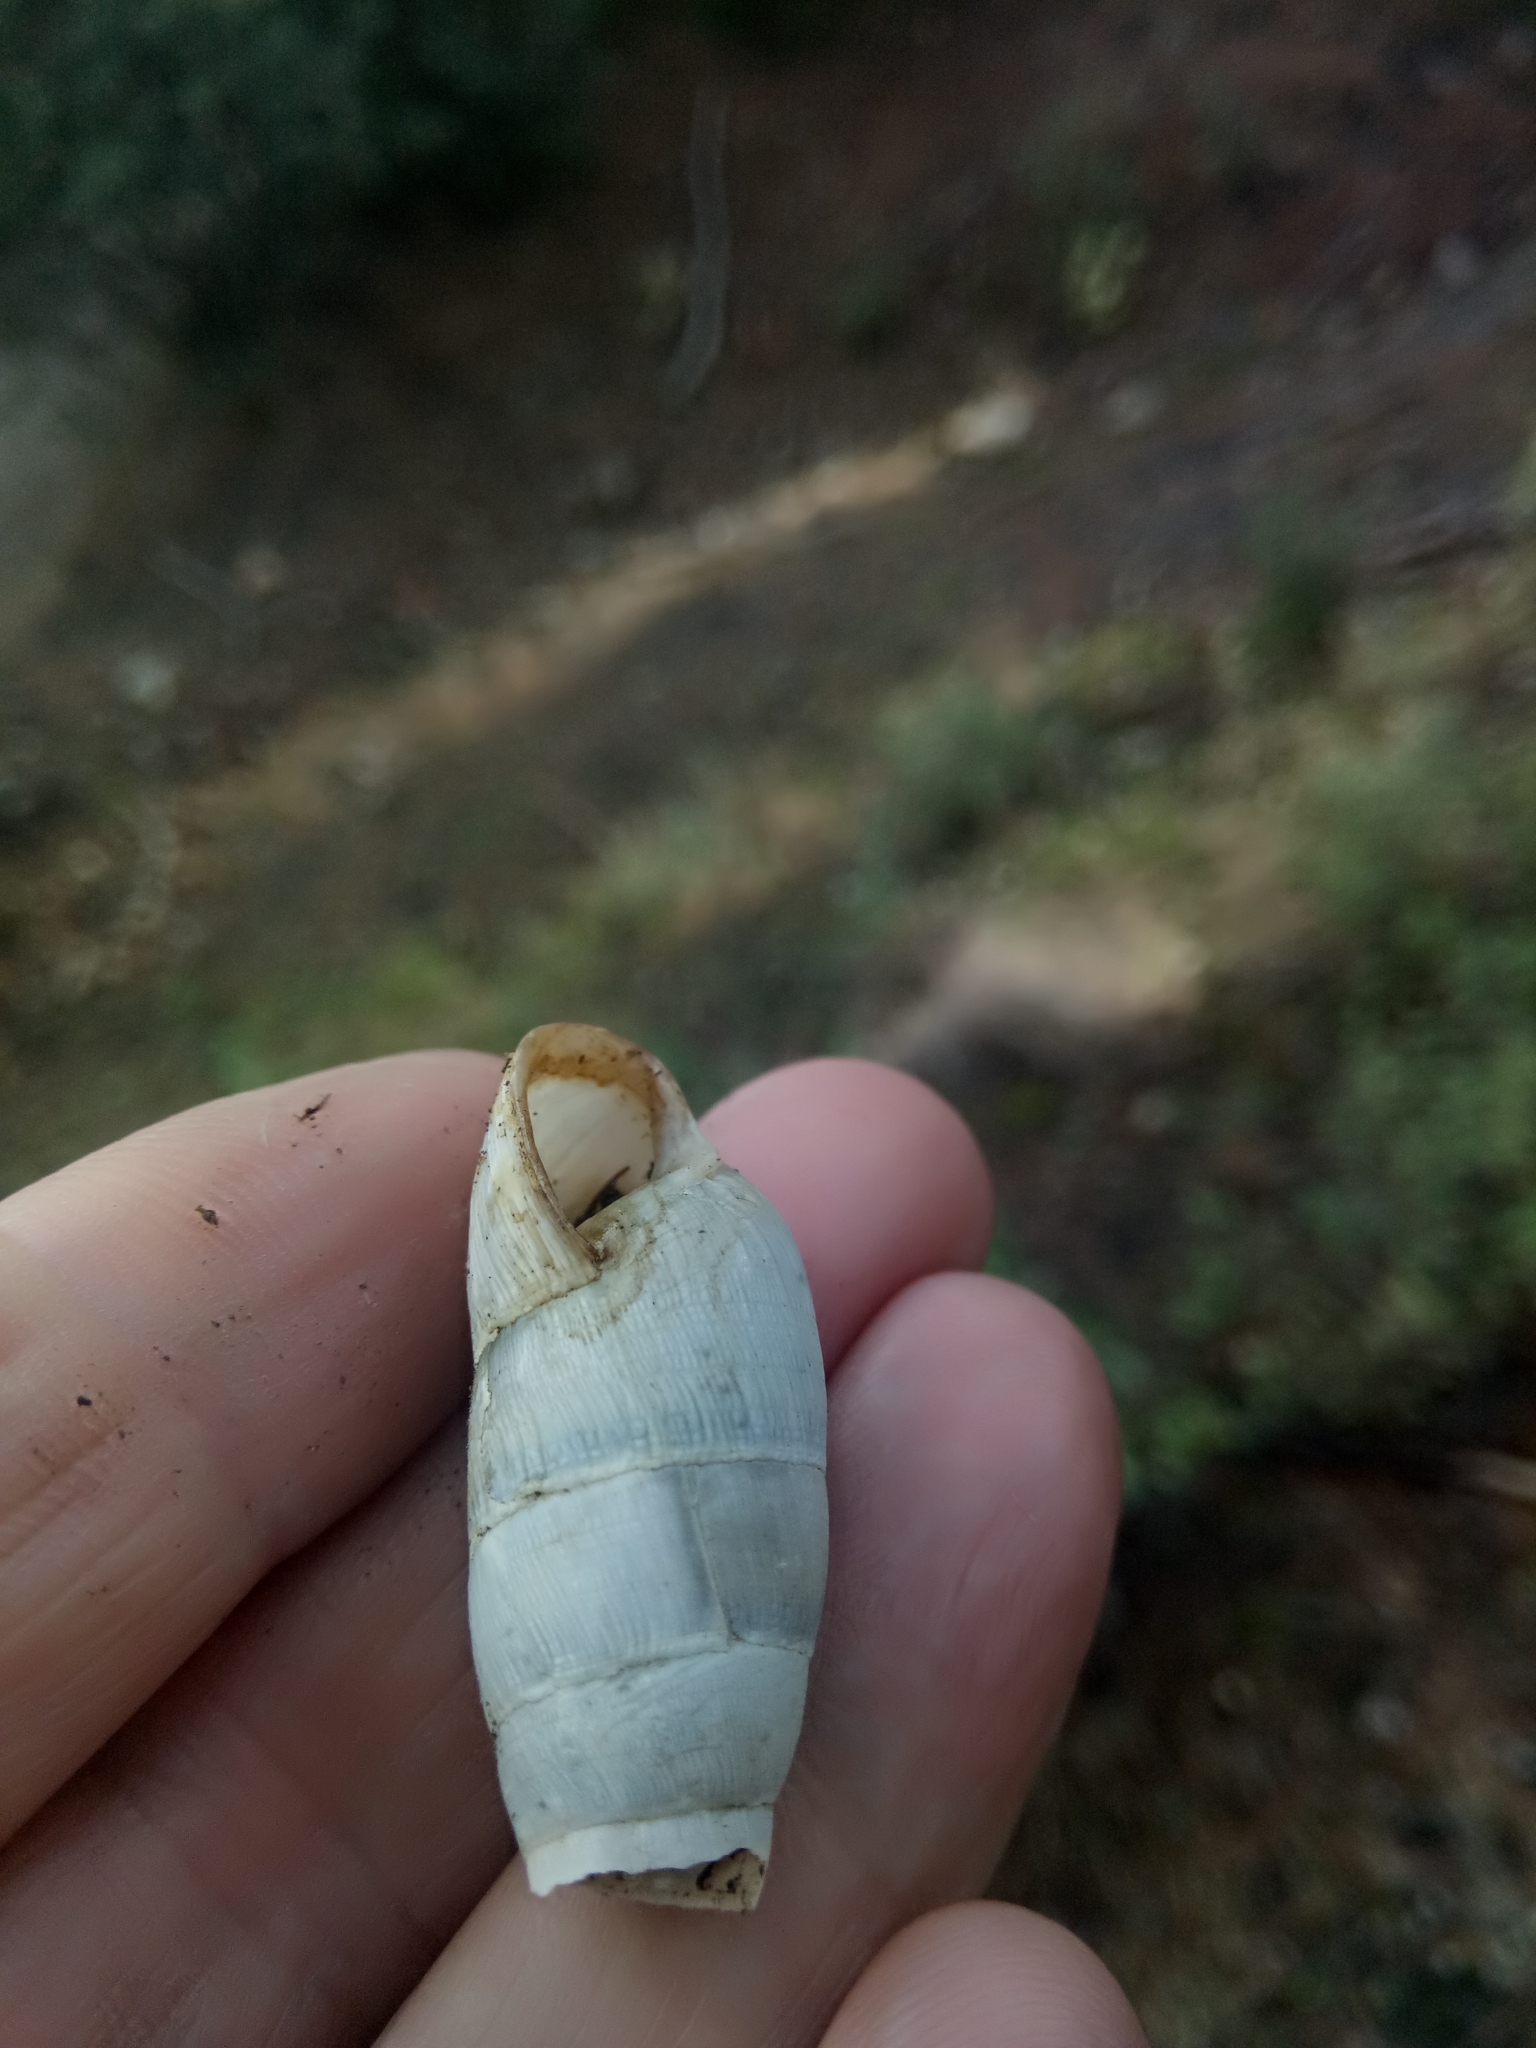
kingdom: Animalia
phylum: Mollusca
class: Gastropoda
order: Stylommatophora
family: Achatinidae
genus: Rumina
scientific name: Rumina decollata
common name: Decollate snail
